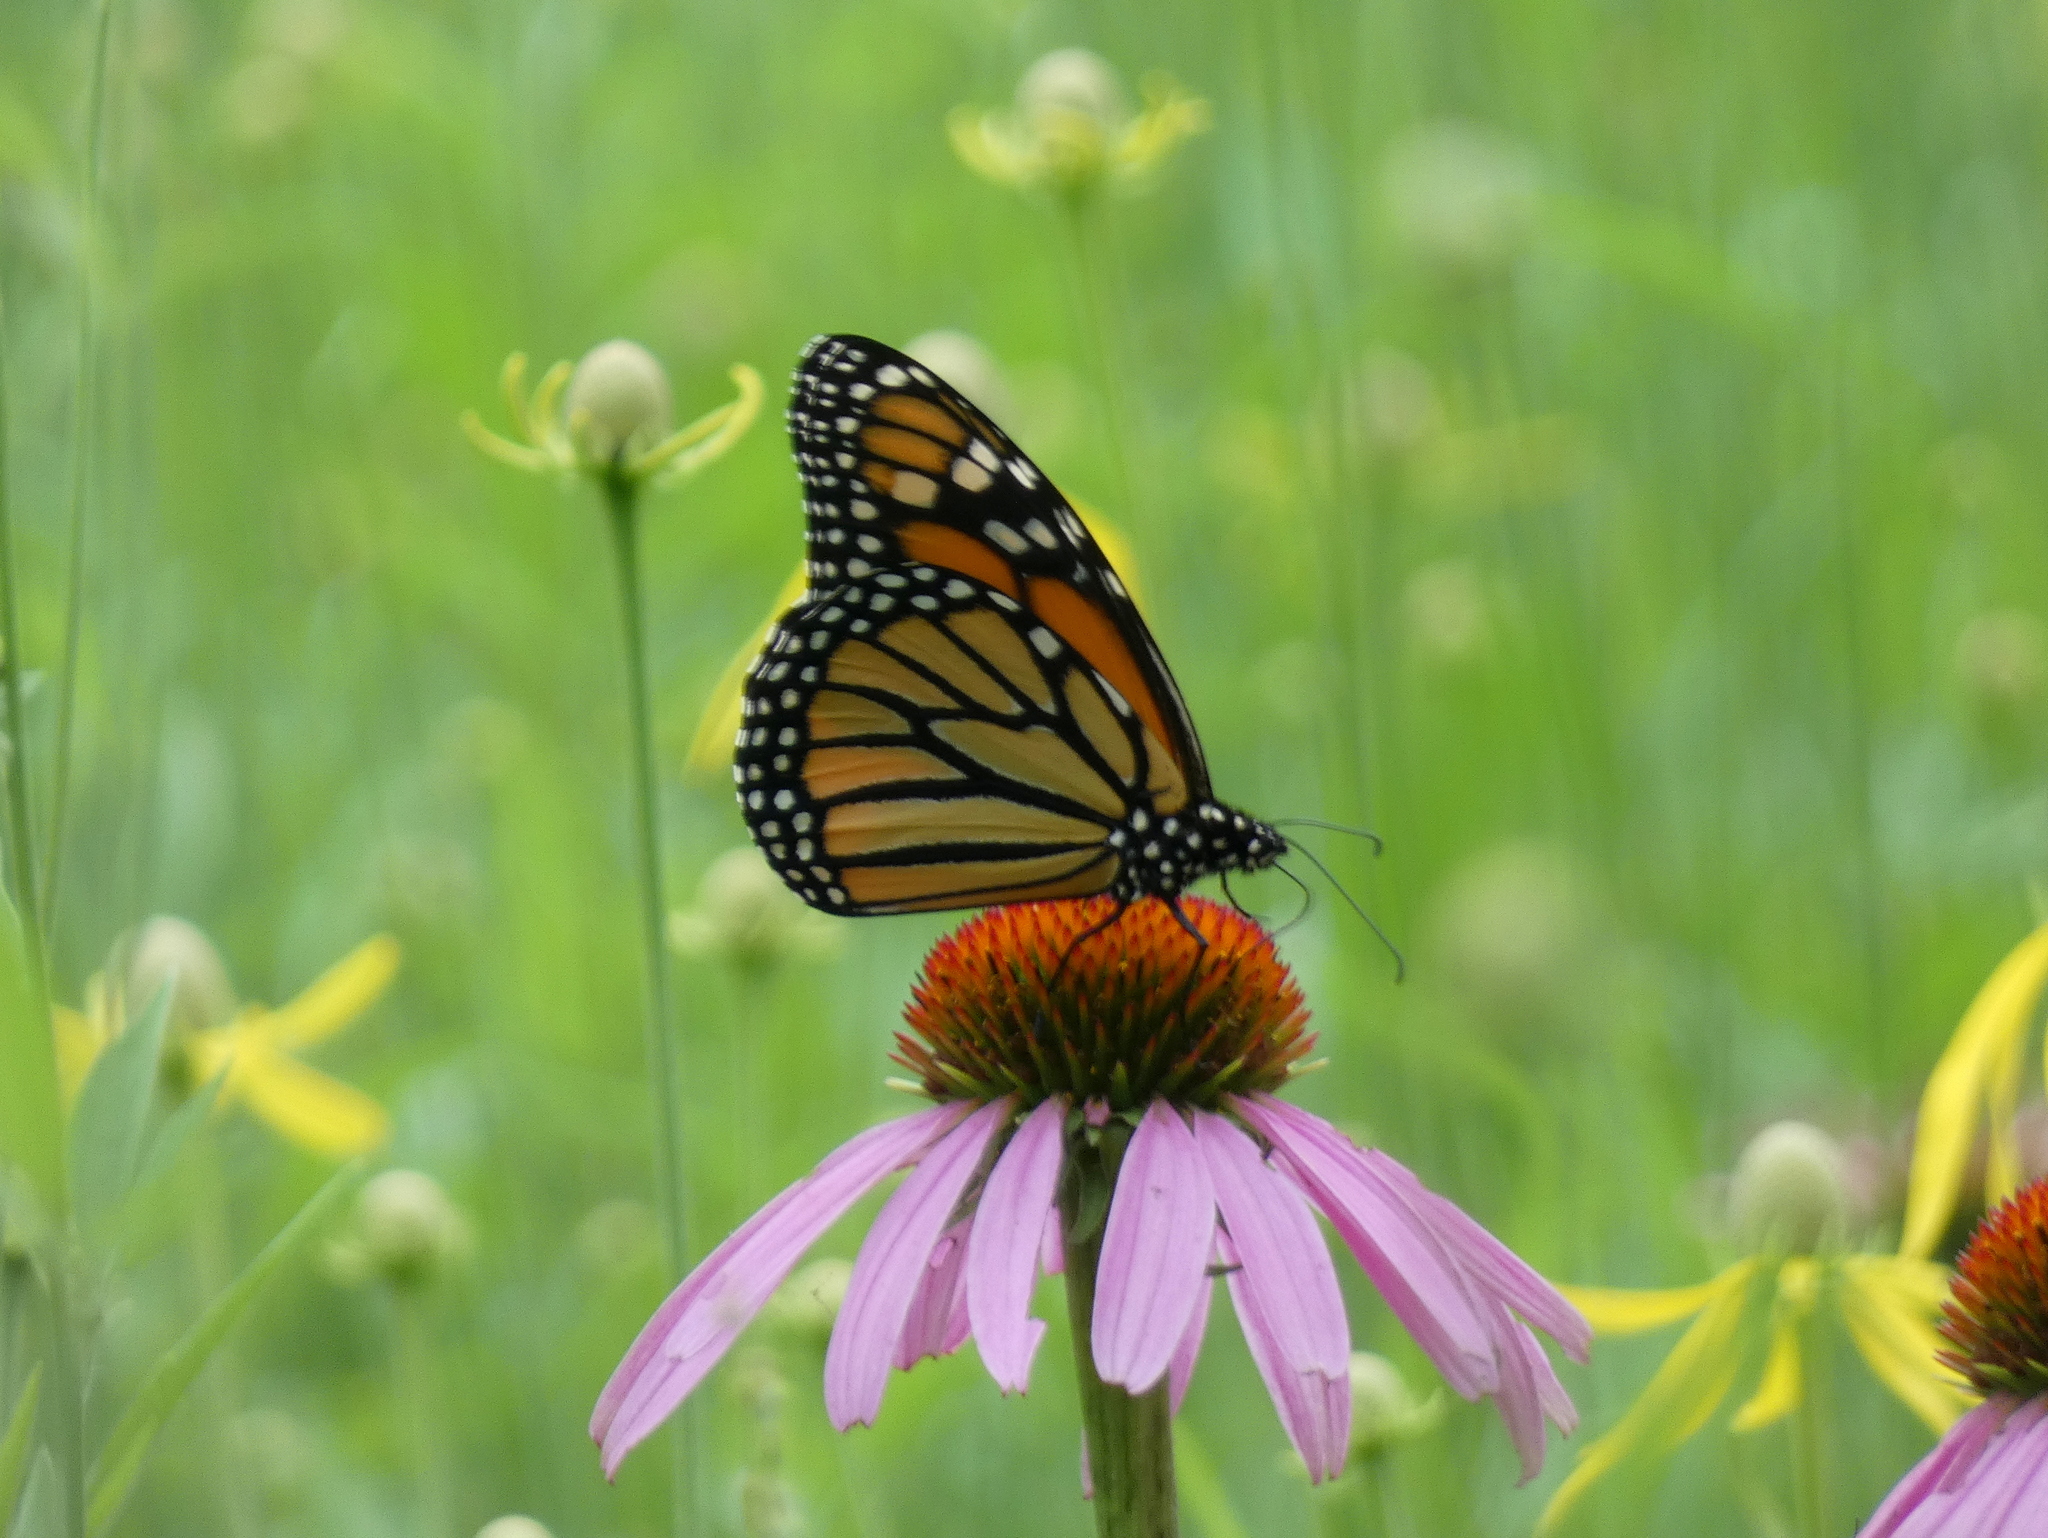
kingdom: Plantae
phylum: Tracheophyta
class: Magnoliopsida
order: Asterales
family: Asteraceae
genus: Echinacea
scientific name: Echinacea purpurea
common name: Broad-leaved purple coneflower
